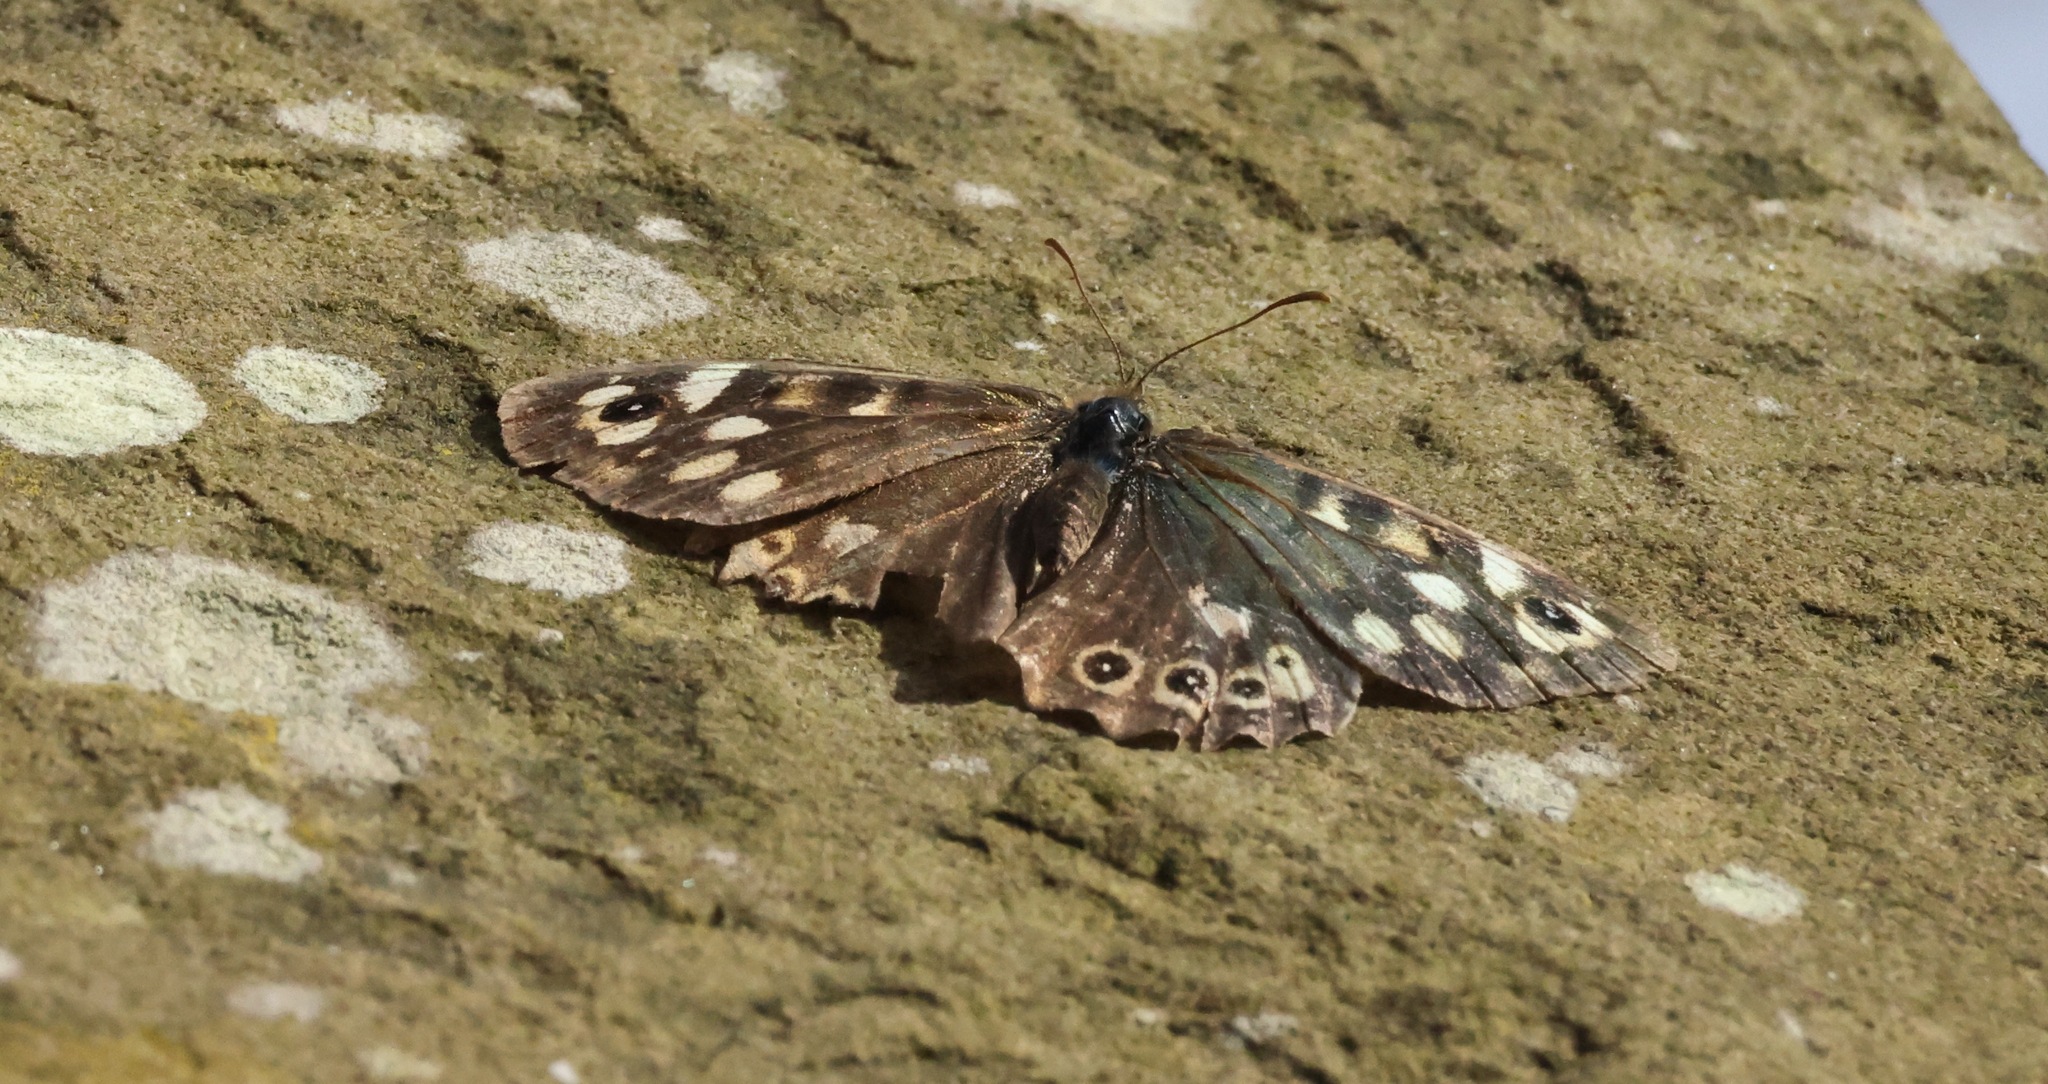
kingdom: Animalia
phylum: Arthropoda
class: Insecta
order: Lepidoptera
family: Nymphalidae
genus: Pararge
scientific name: Pararge aegeria
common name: Speckled wood
